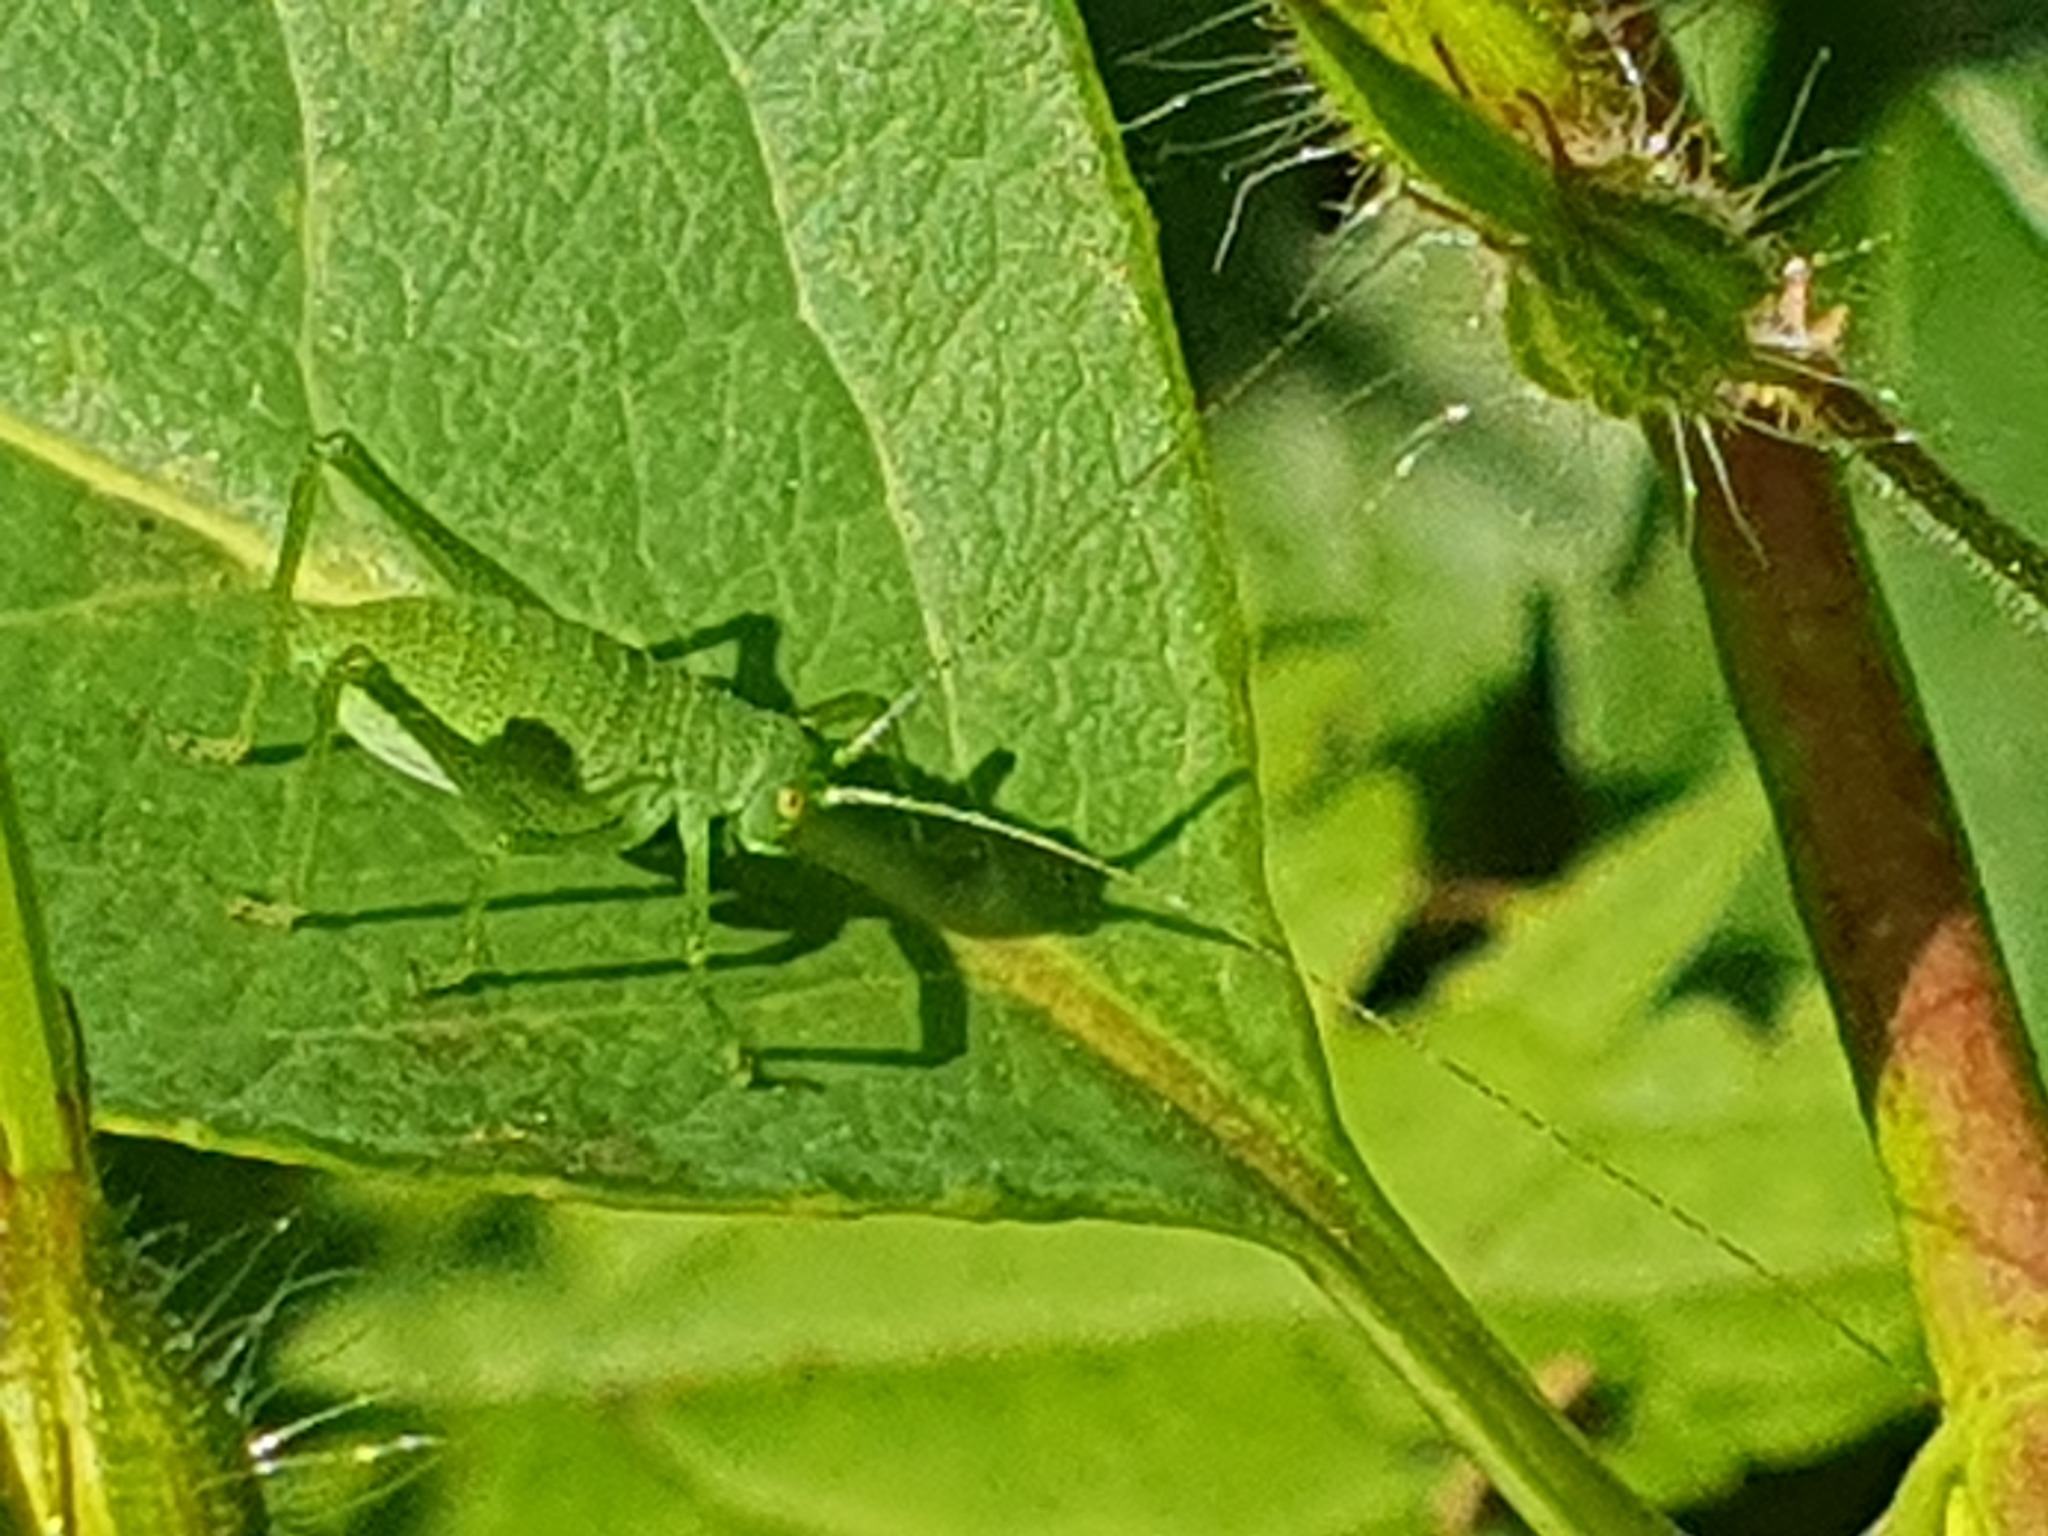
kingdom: Animalia
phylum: Arthropoda
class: Insecta
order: Orthoptera
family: Tettigoniidae
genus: Poecilimon
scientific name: Poecilimon schmidtii
